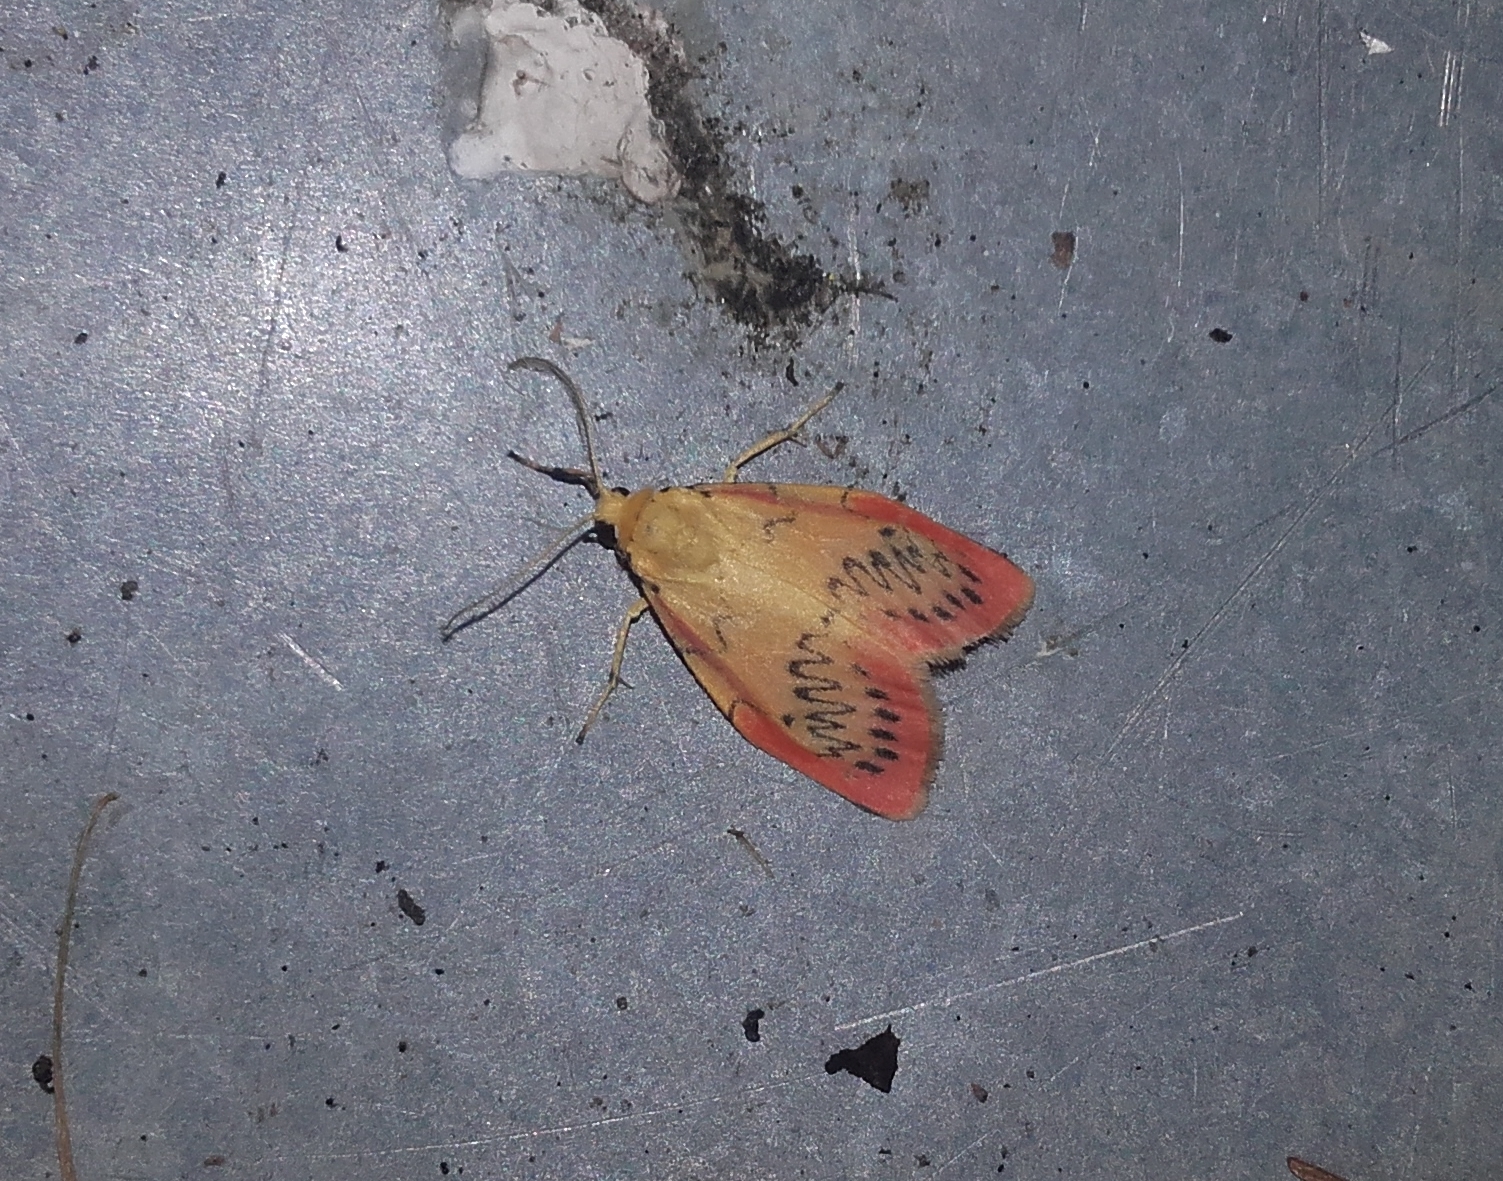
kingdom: Animalia
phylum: Arthropoda
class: Insecta
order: Lepidoptera
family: Erebidae
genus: Miltochrista
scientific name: Miltochrista miniata
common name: Rosy footman
